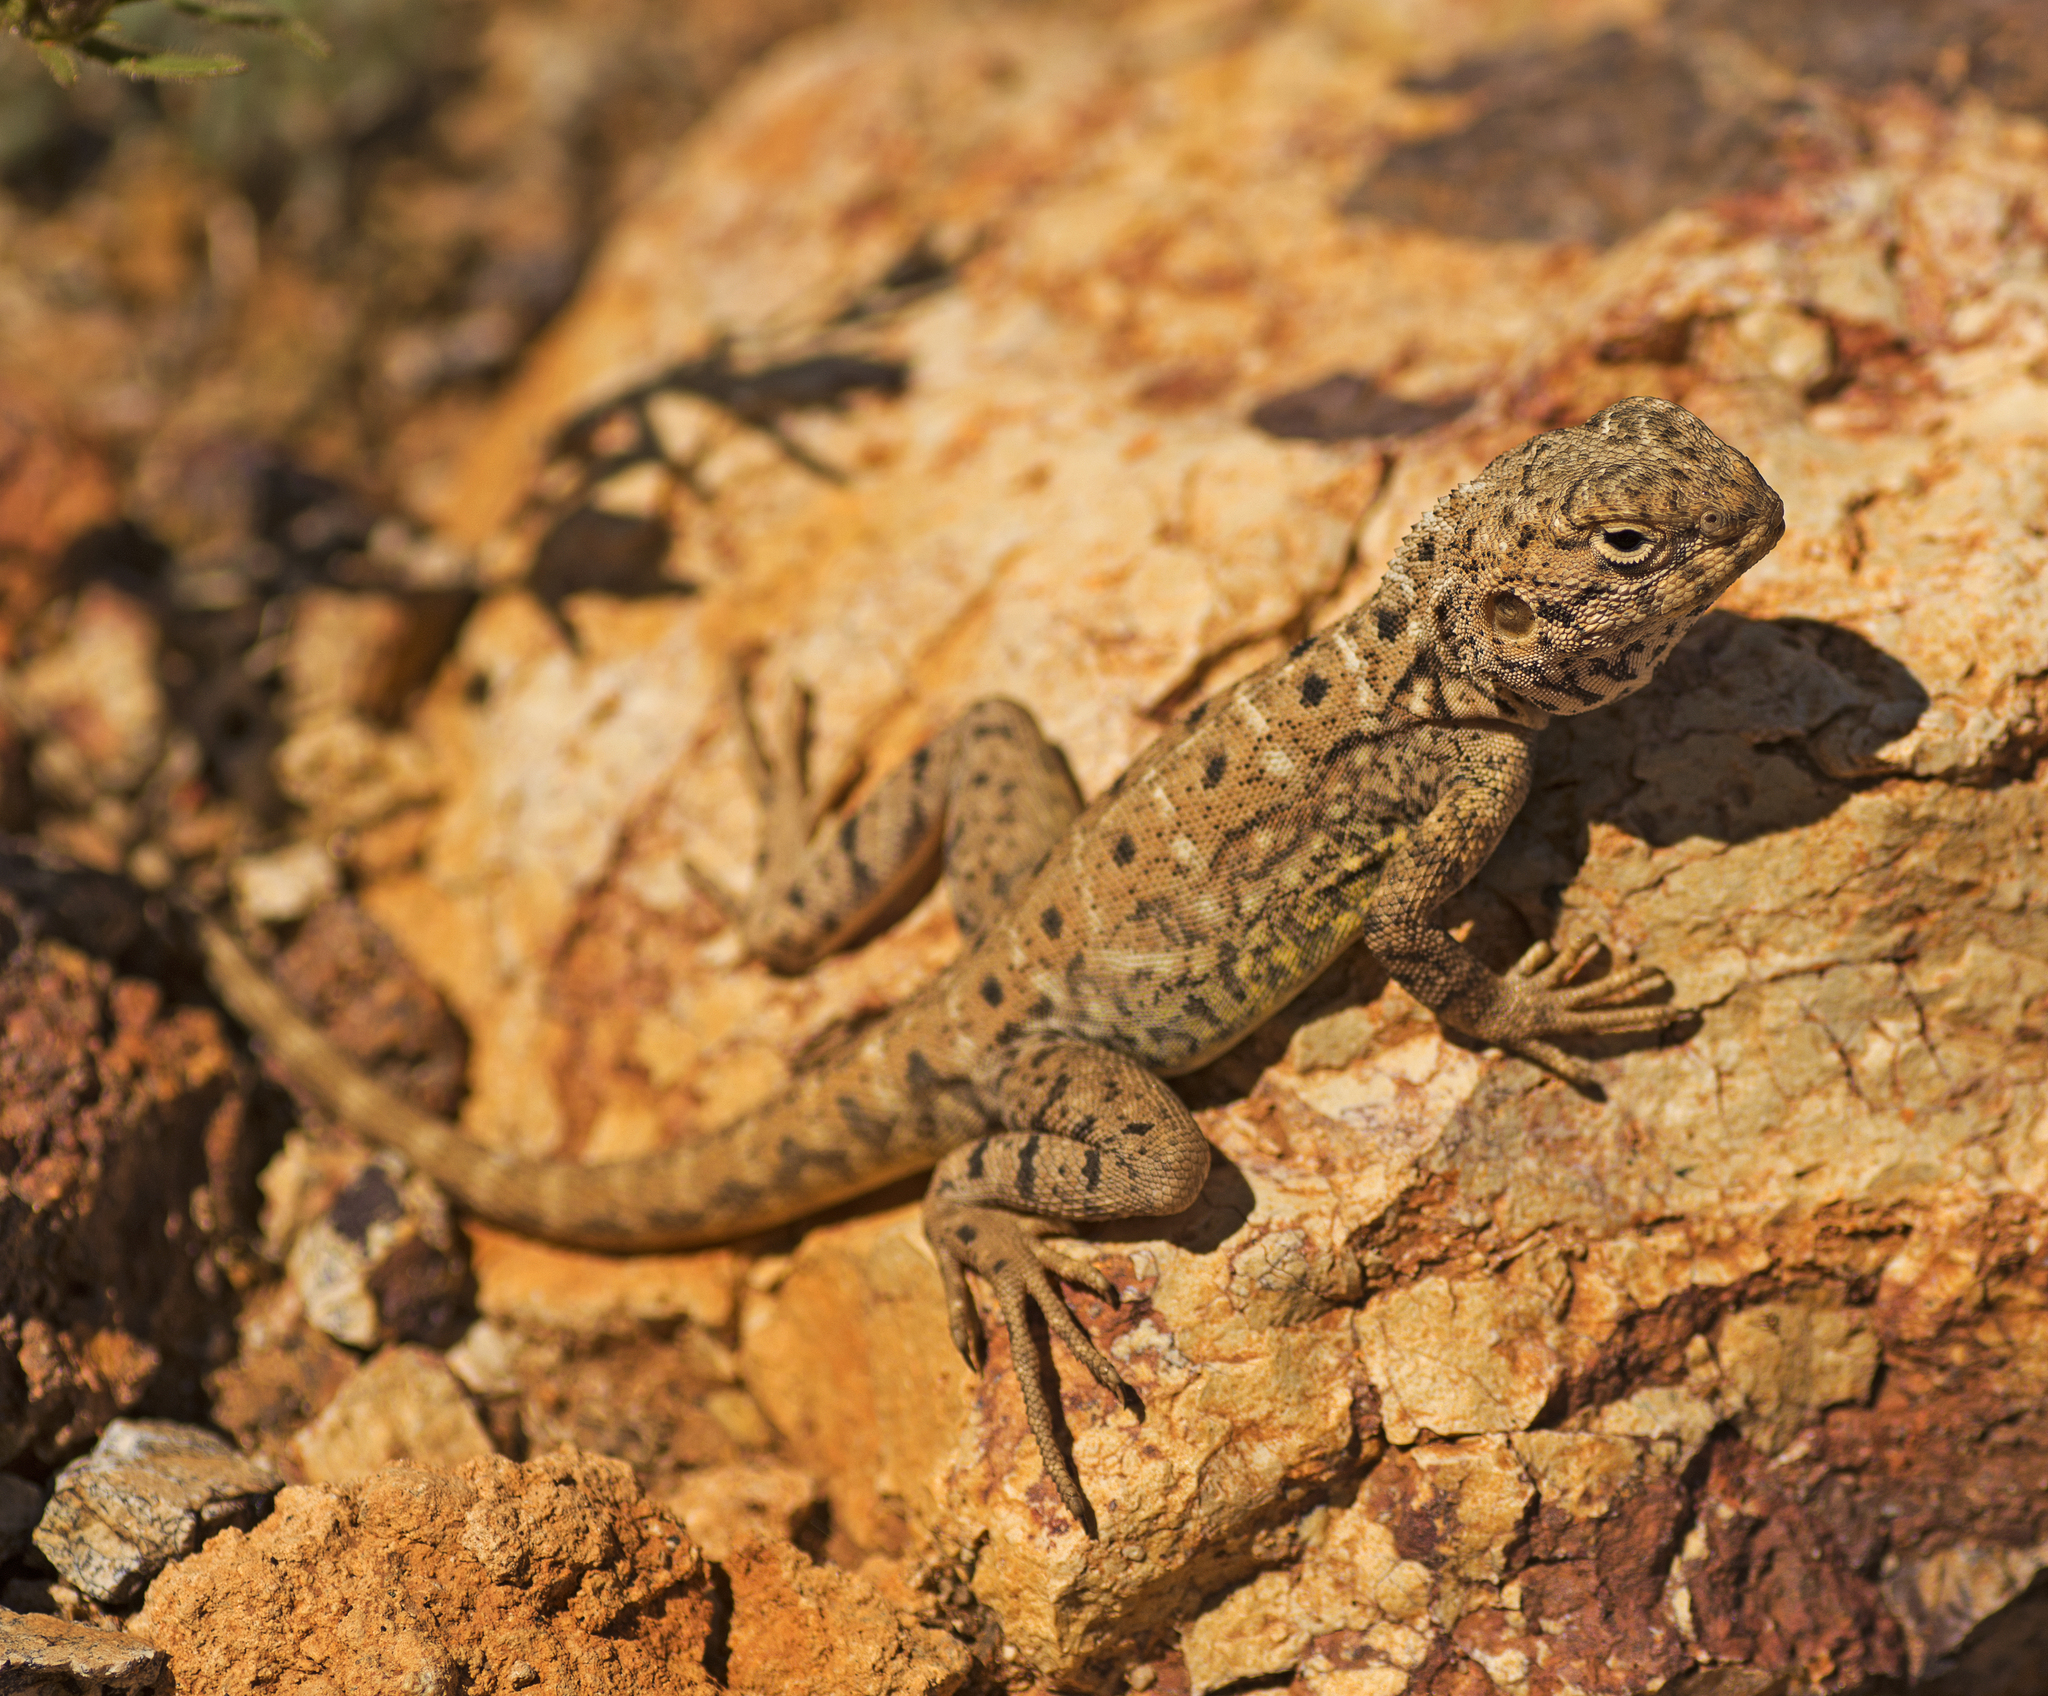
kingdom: Animalia
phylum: Chordata
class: Squamata
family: Agamidae
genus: Ctenophorus
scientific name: Ctenophorus slateri
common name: Slater’s dragon
